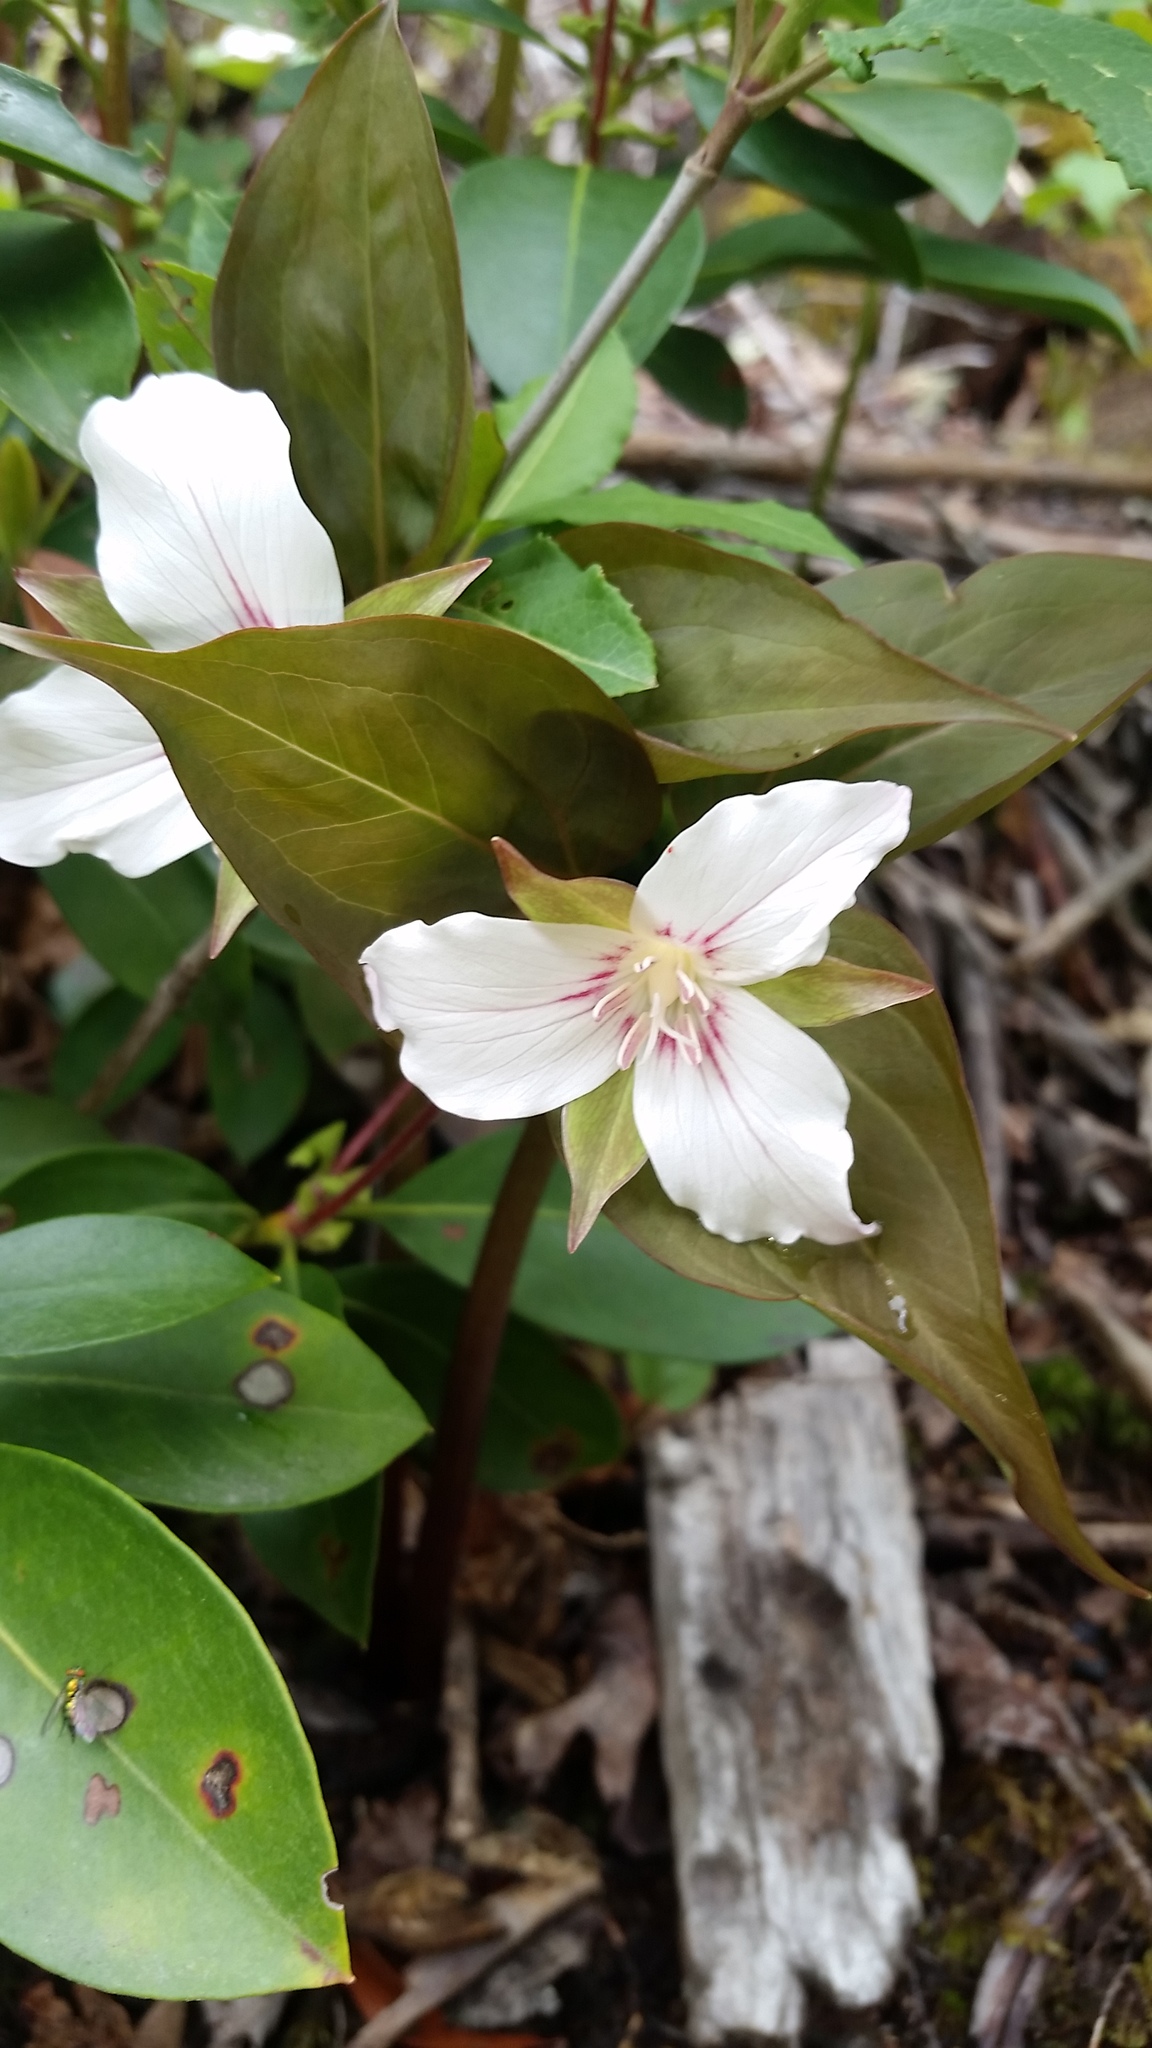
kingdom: Plantae
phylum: Tracheophyta
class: Liliopsida
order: Liliales
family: Melanthiaceae
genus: Trillium
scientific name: Trillium undulatum
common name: Paint trillium
